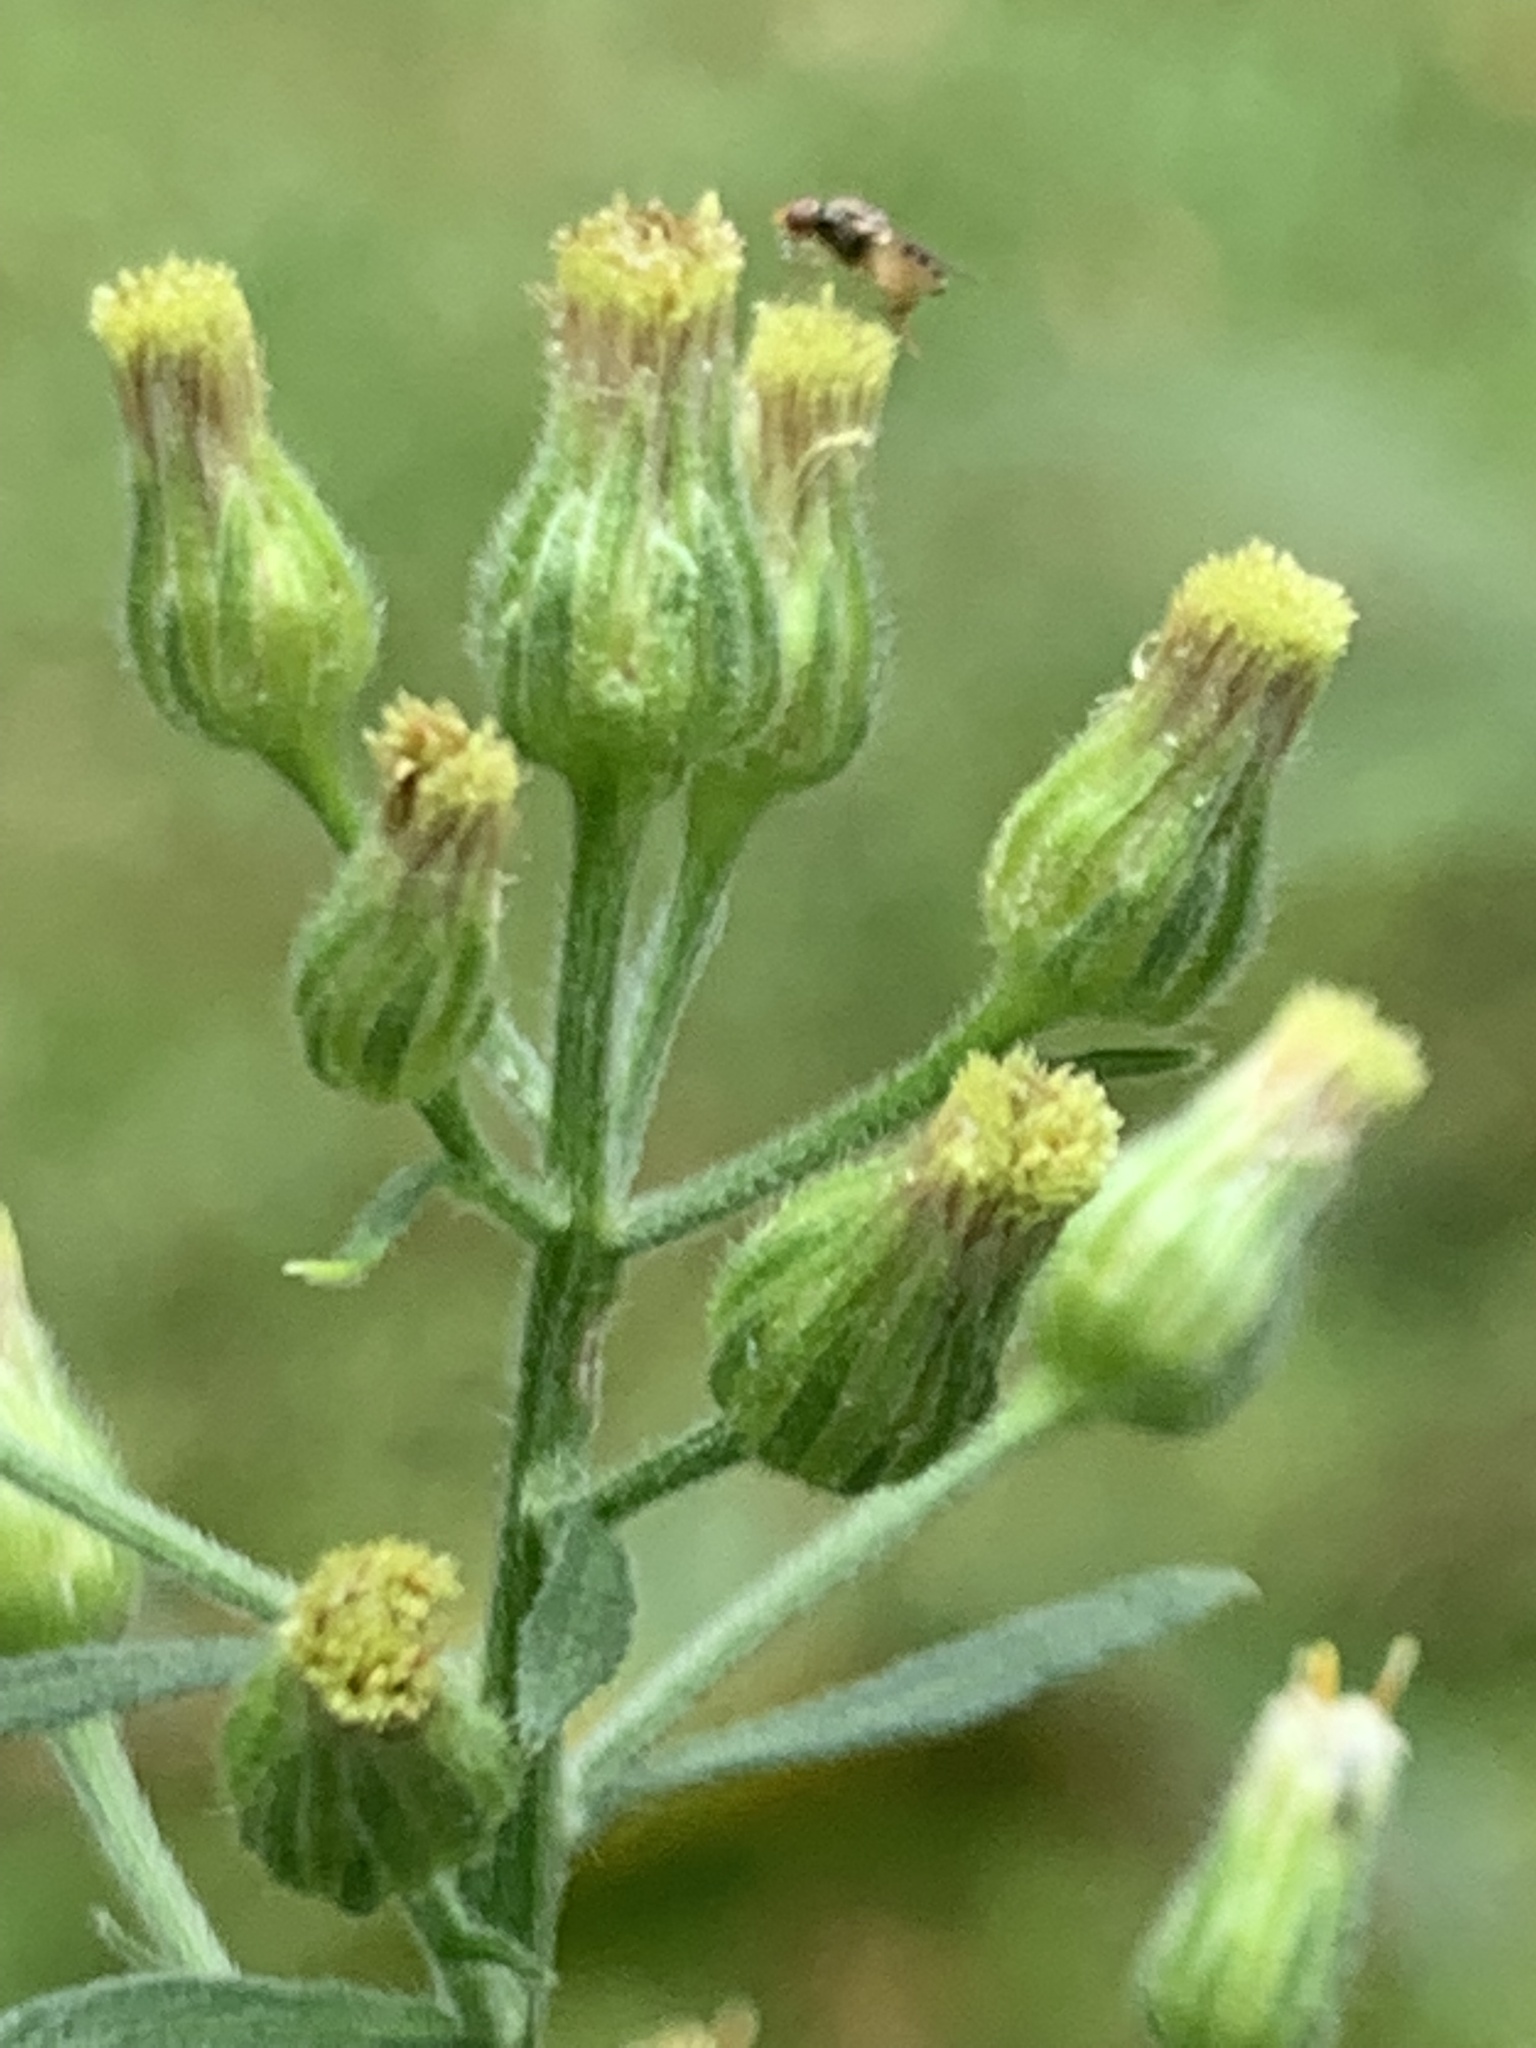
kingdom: Plantae
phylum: Tracheophyta
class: Magnoliopsida
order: Asterales
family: Asteraceae
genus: Erigeron
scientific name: Erigeron sumatrensis
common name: Daisy
